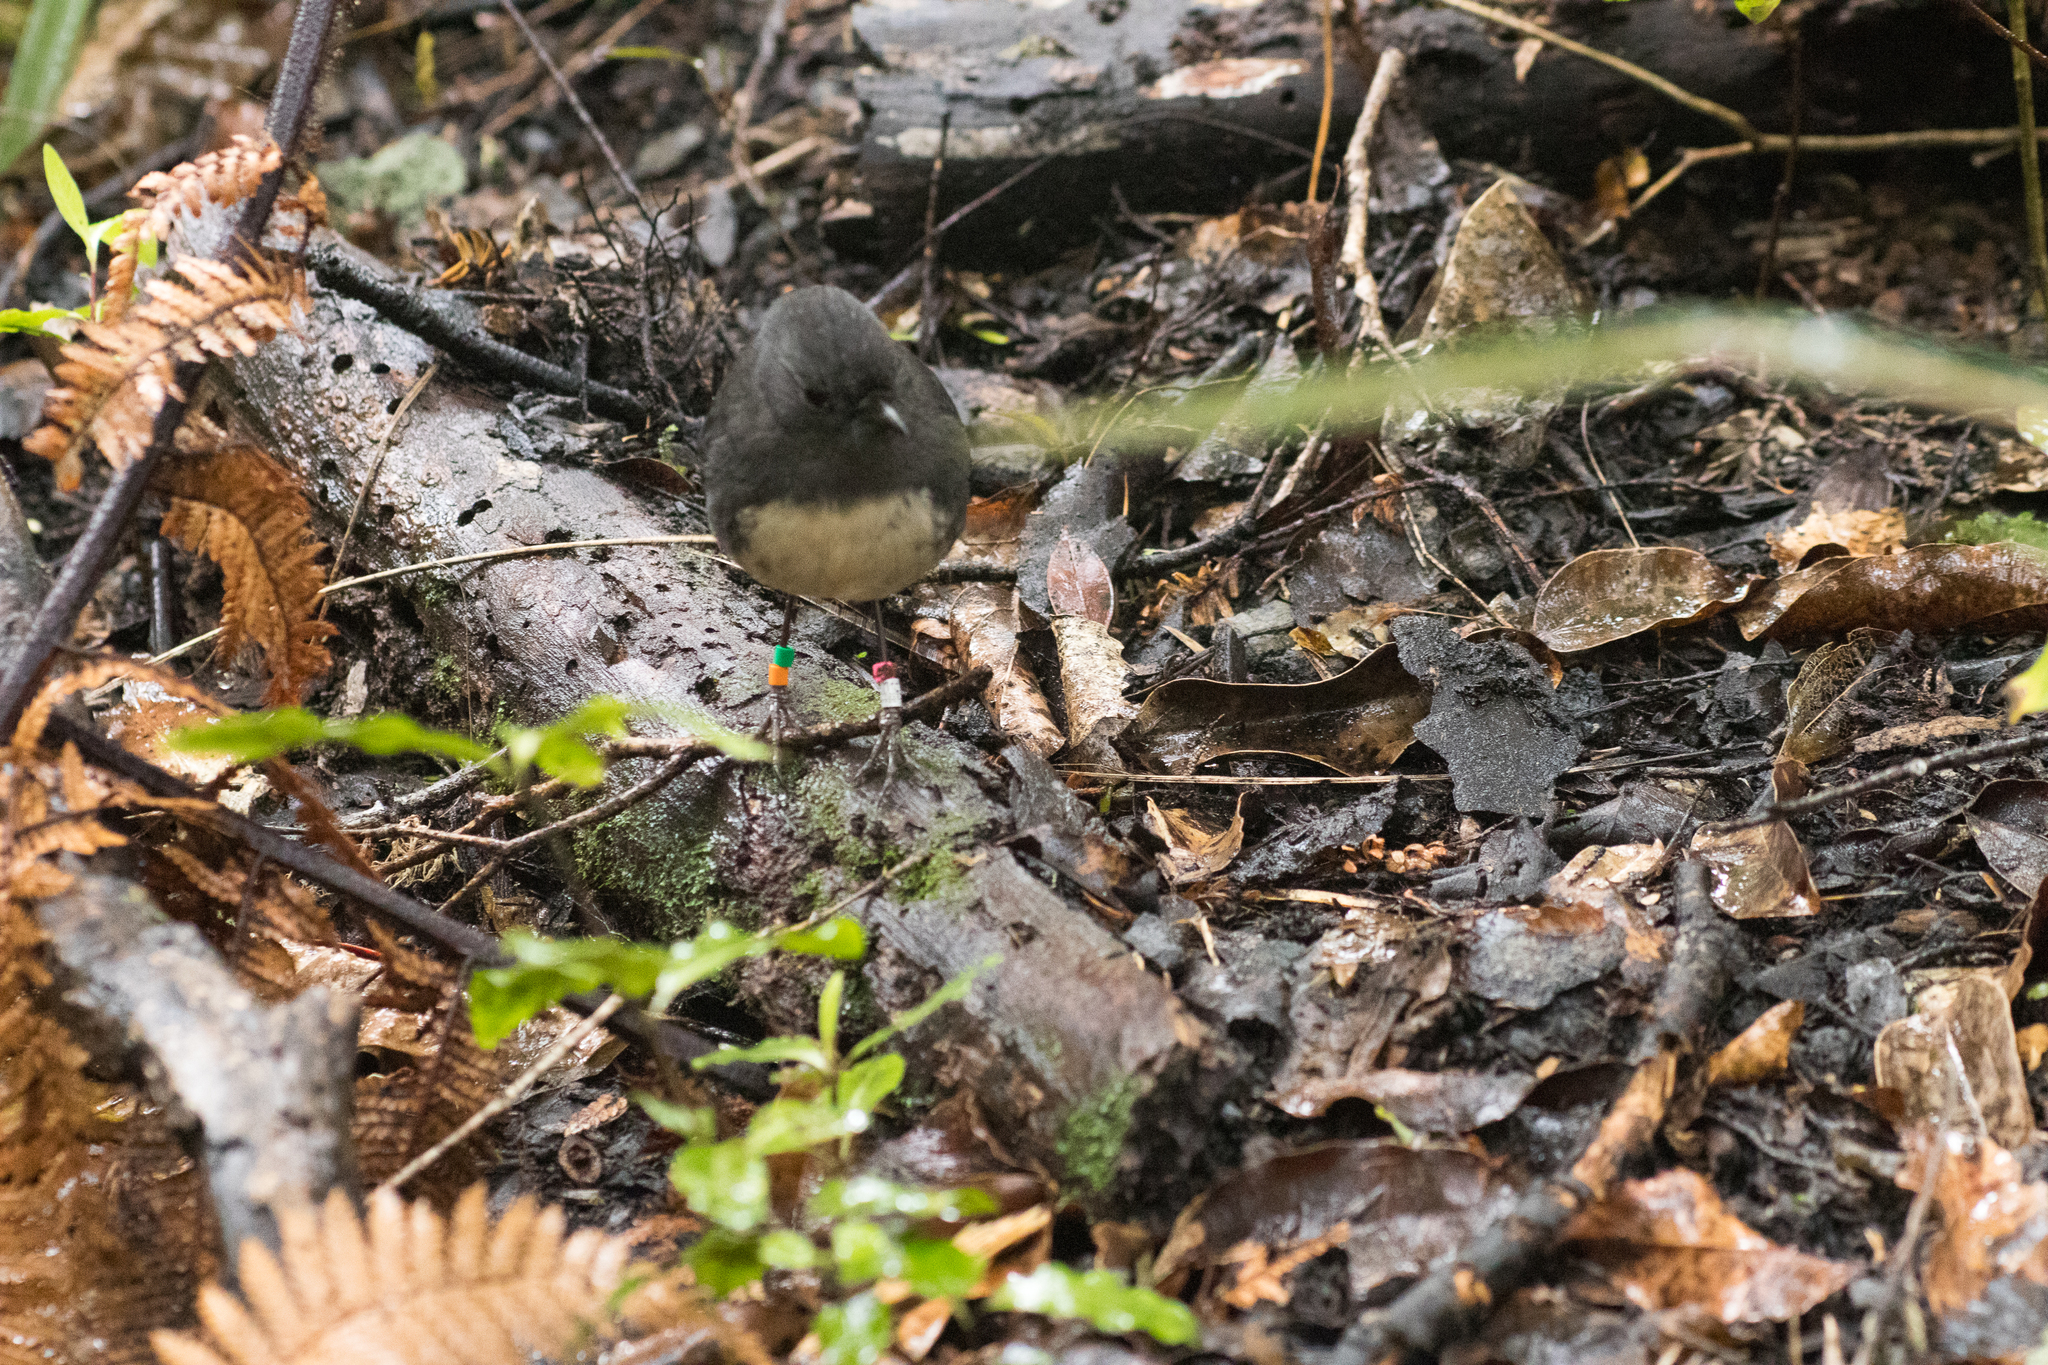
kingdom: Animalia
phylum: Chordata
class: Aves
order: Passeriformes
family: Petroicidae
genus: Petroica
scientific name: Petroica australis
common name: New zealand robin
